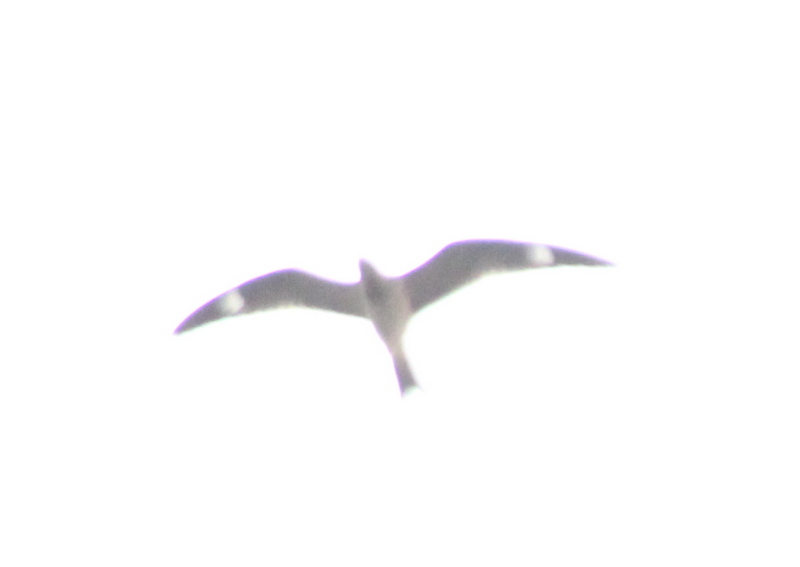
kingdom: Animalia
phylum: Chordata
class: Aves
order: Caprimulgiformes
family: Caprimulgidae
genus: Chordeiles
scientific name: Chordeiles minor
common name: Common nighthawk
